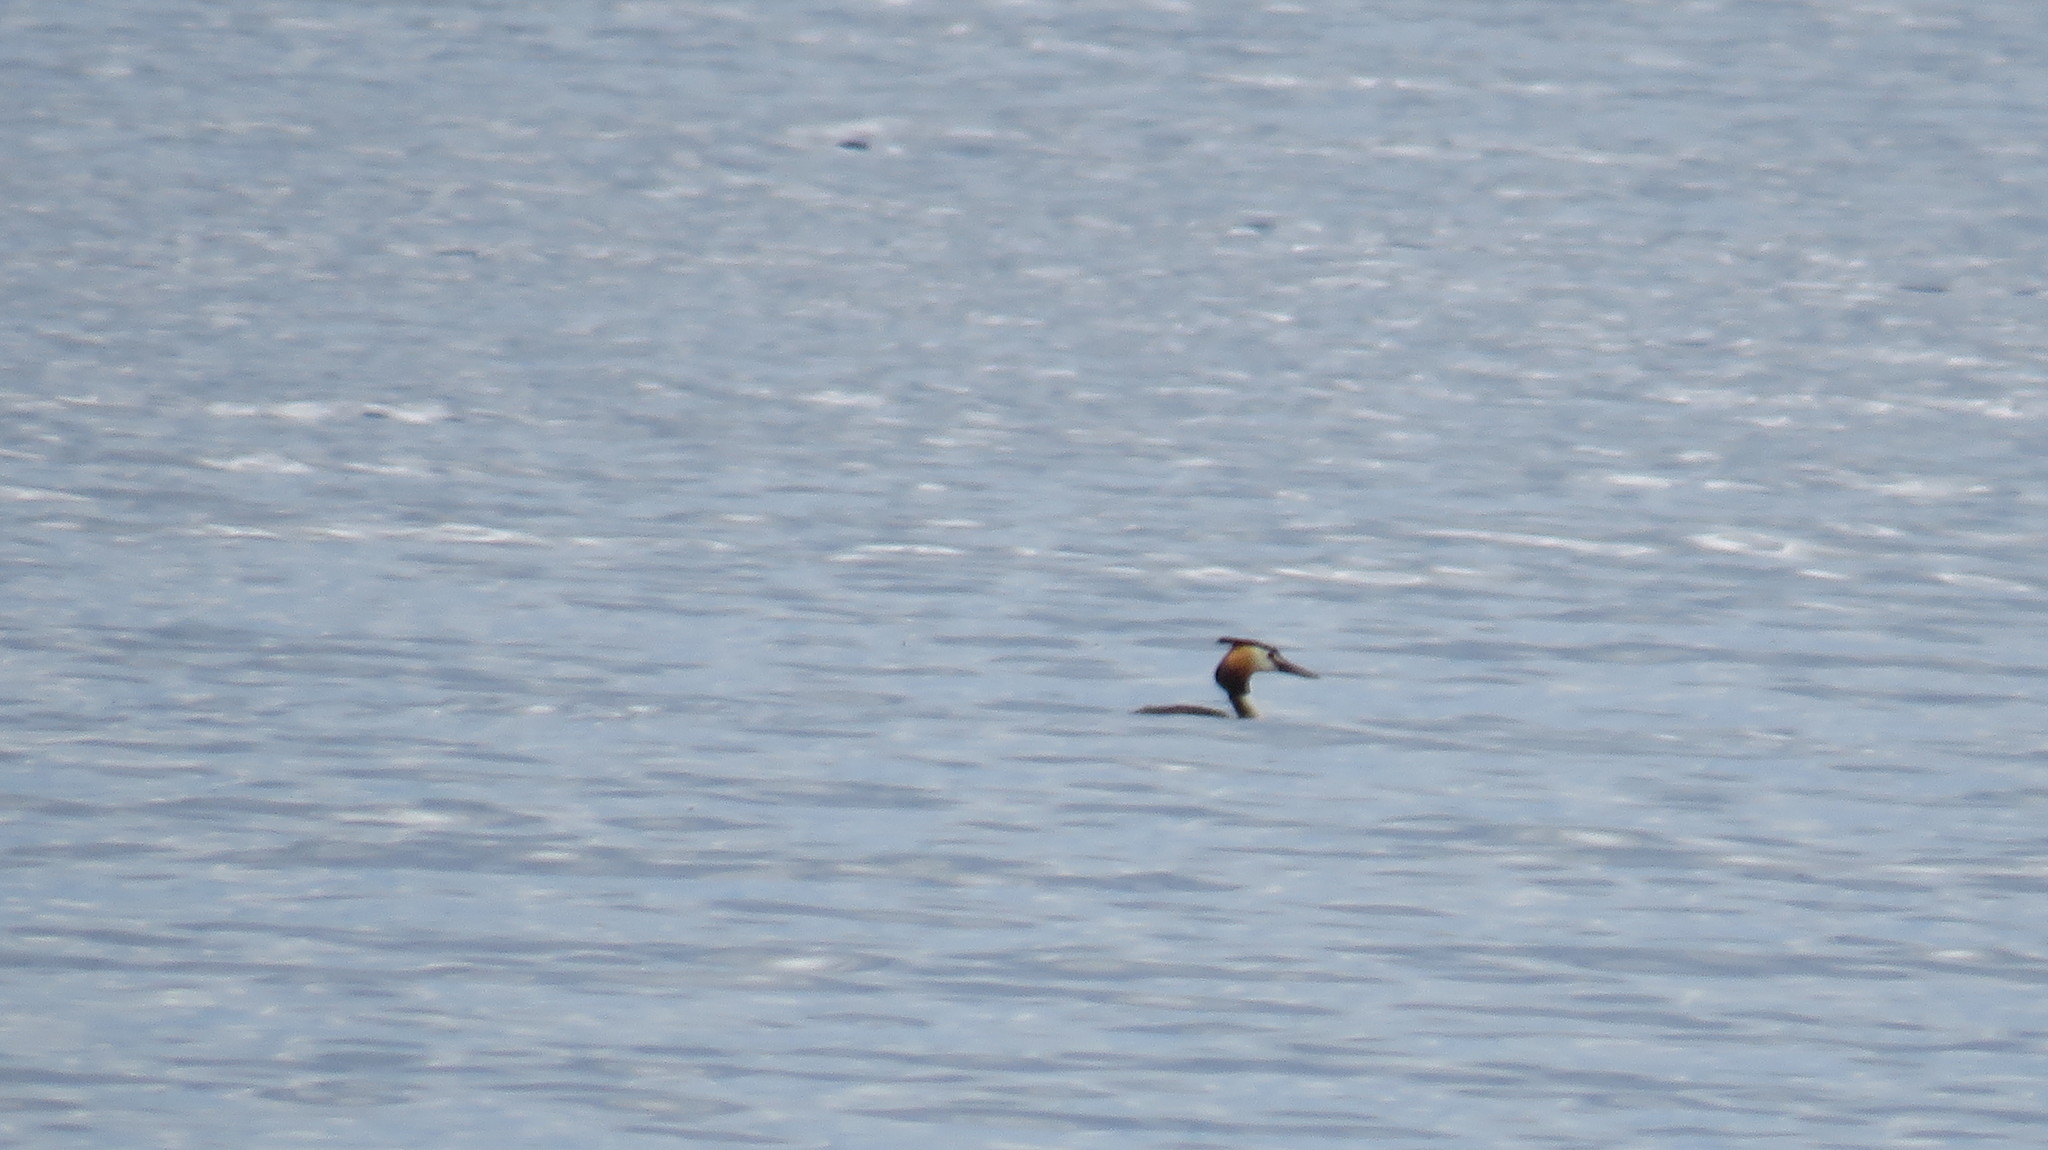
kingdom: Animalia
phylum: Chordata
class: Aves
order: Podicipediformes
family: Podicipedidae
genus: Podiceps
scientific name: Podiceps cristatus
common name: Great crested grebe
